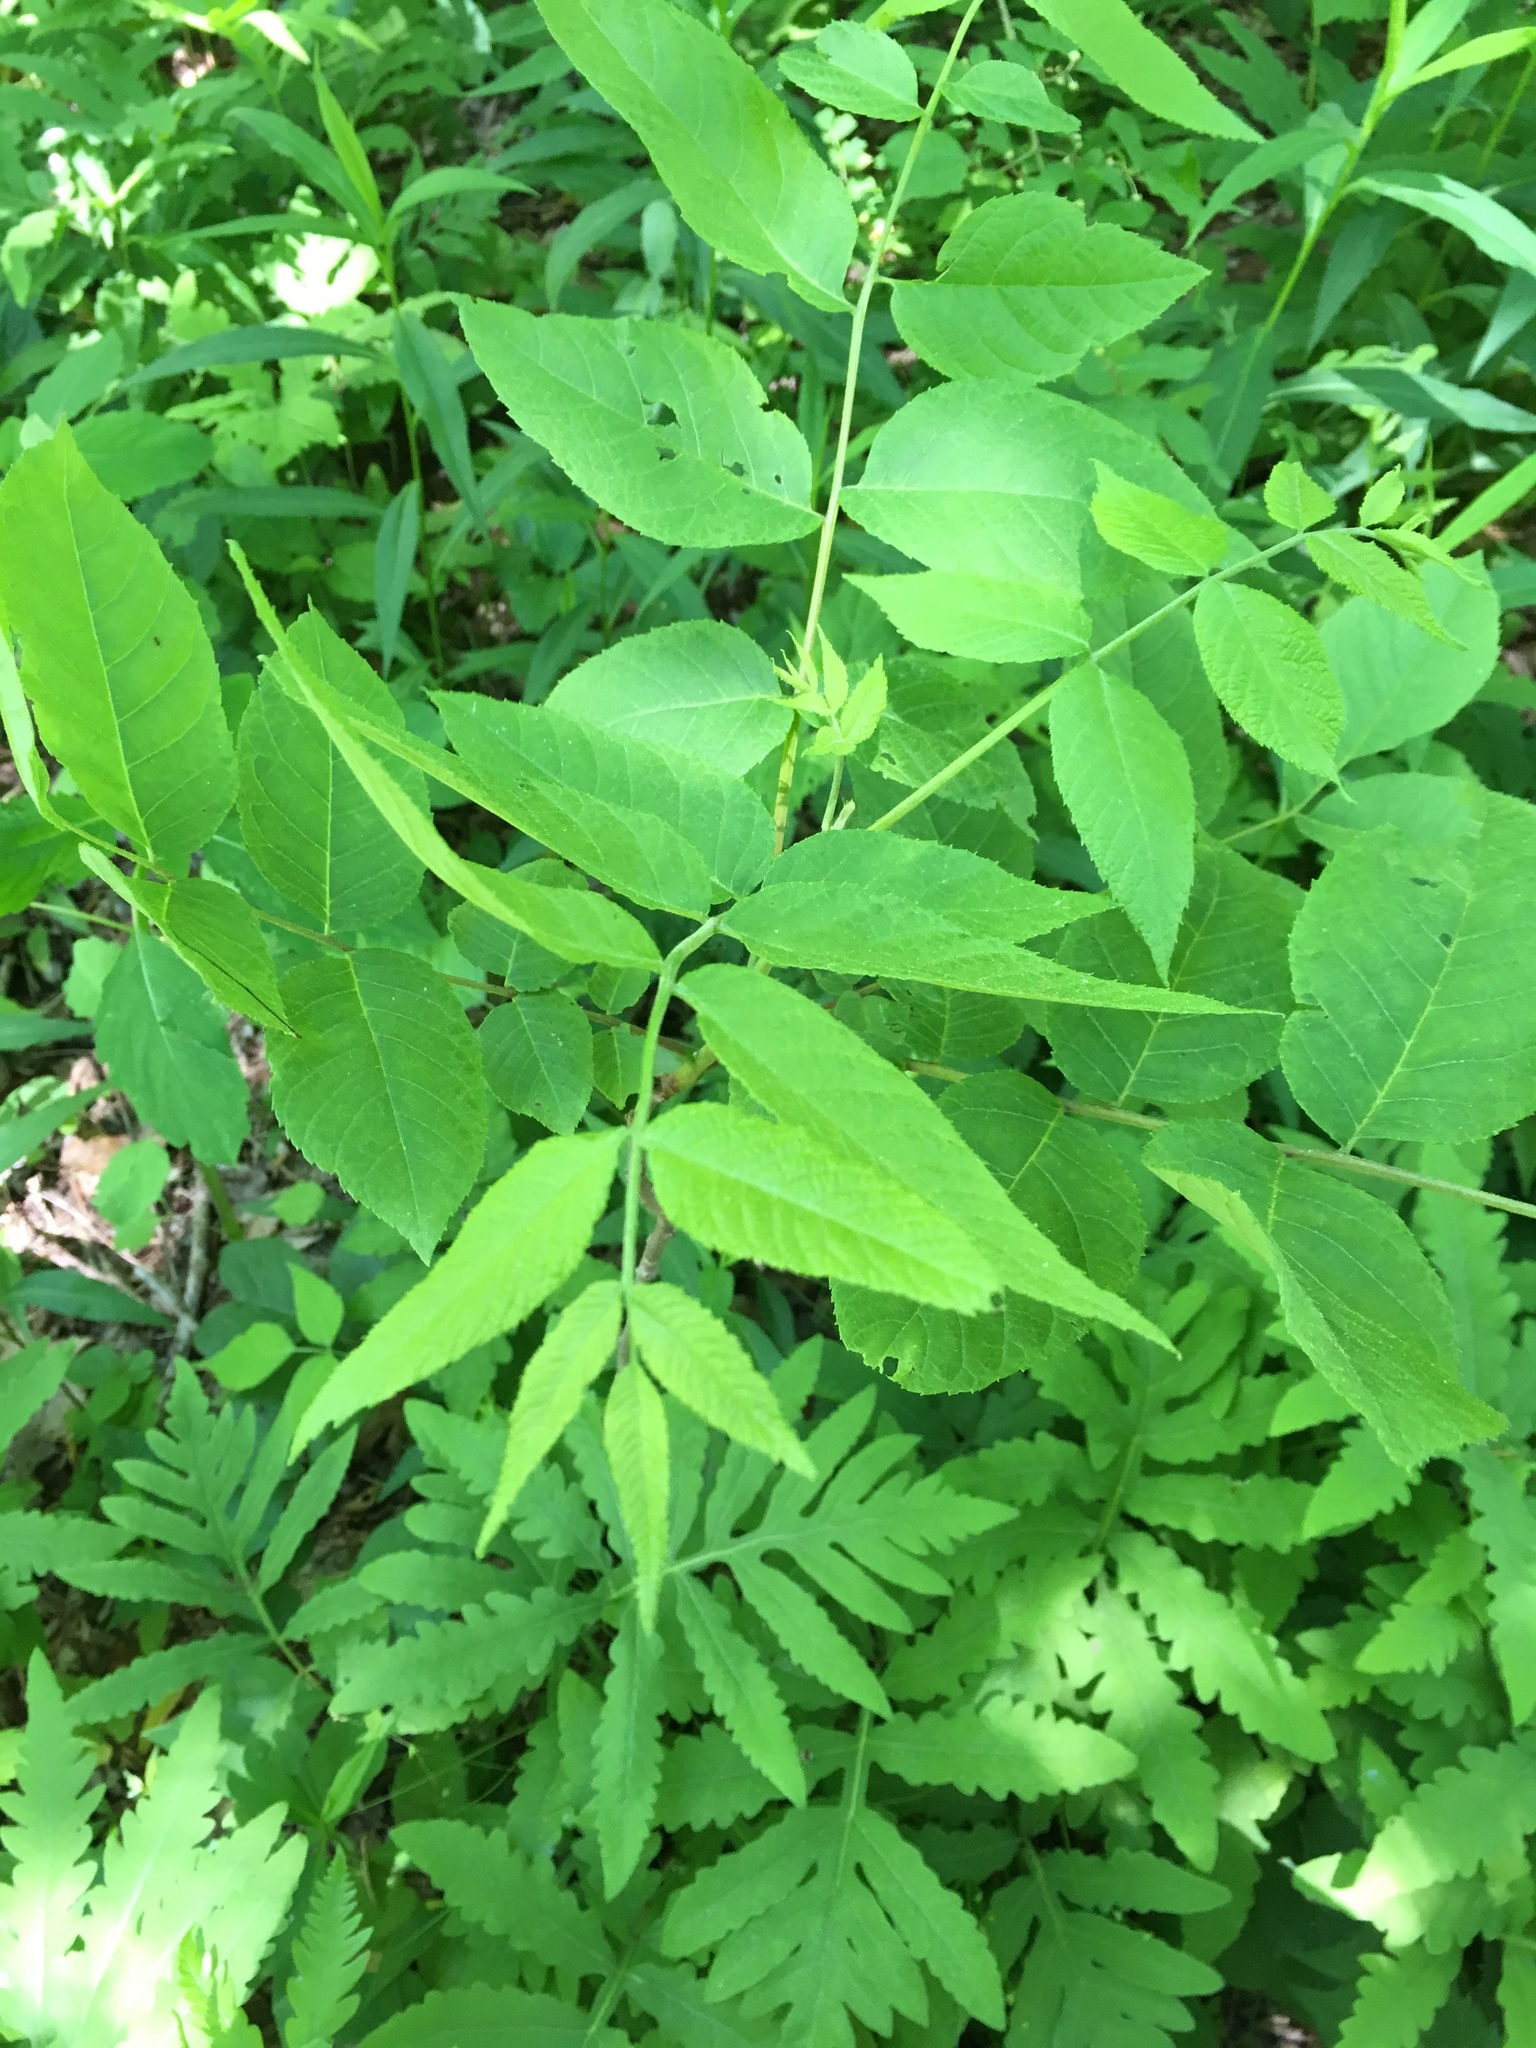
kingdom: Plantae
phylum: Tracheophyta
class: Magnoliopsida
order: Fagales
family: Juglandaceae
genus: Juglans
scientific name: Juglans nigra
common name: Black walnut
